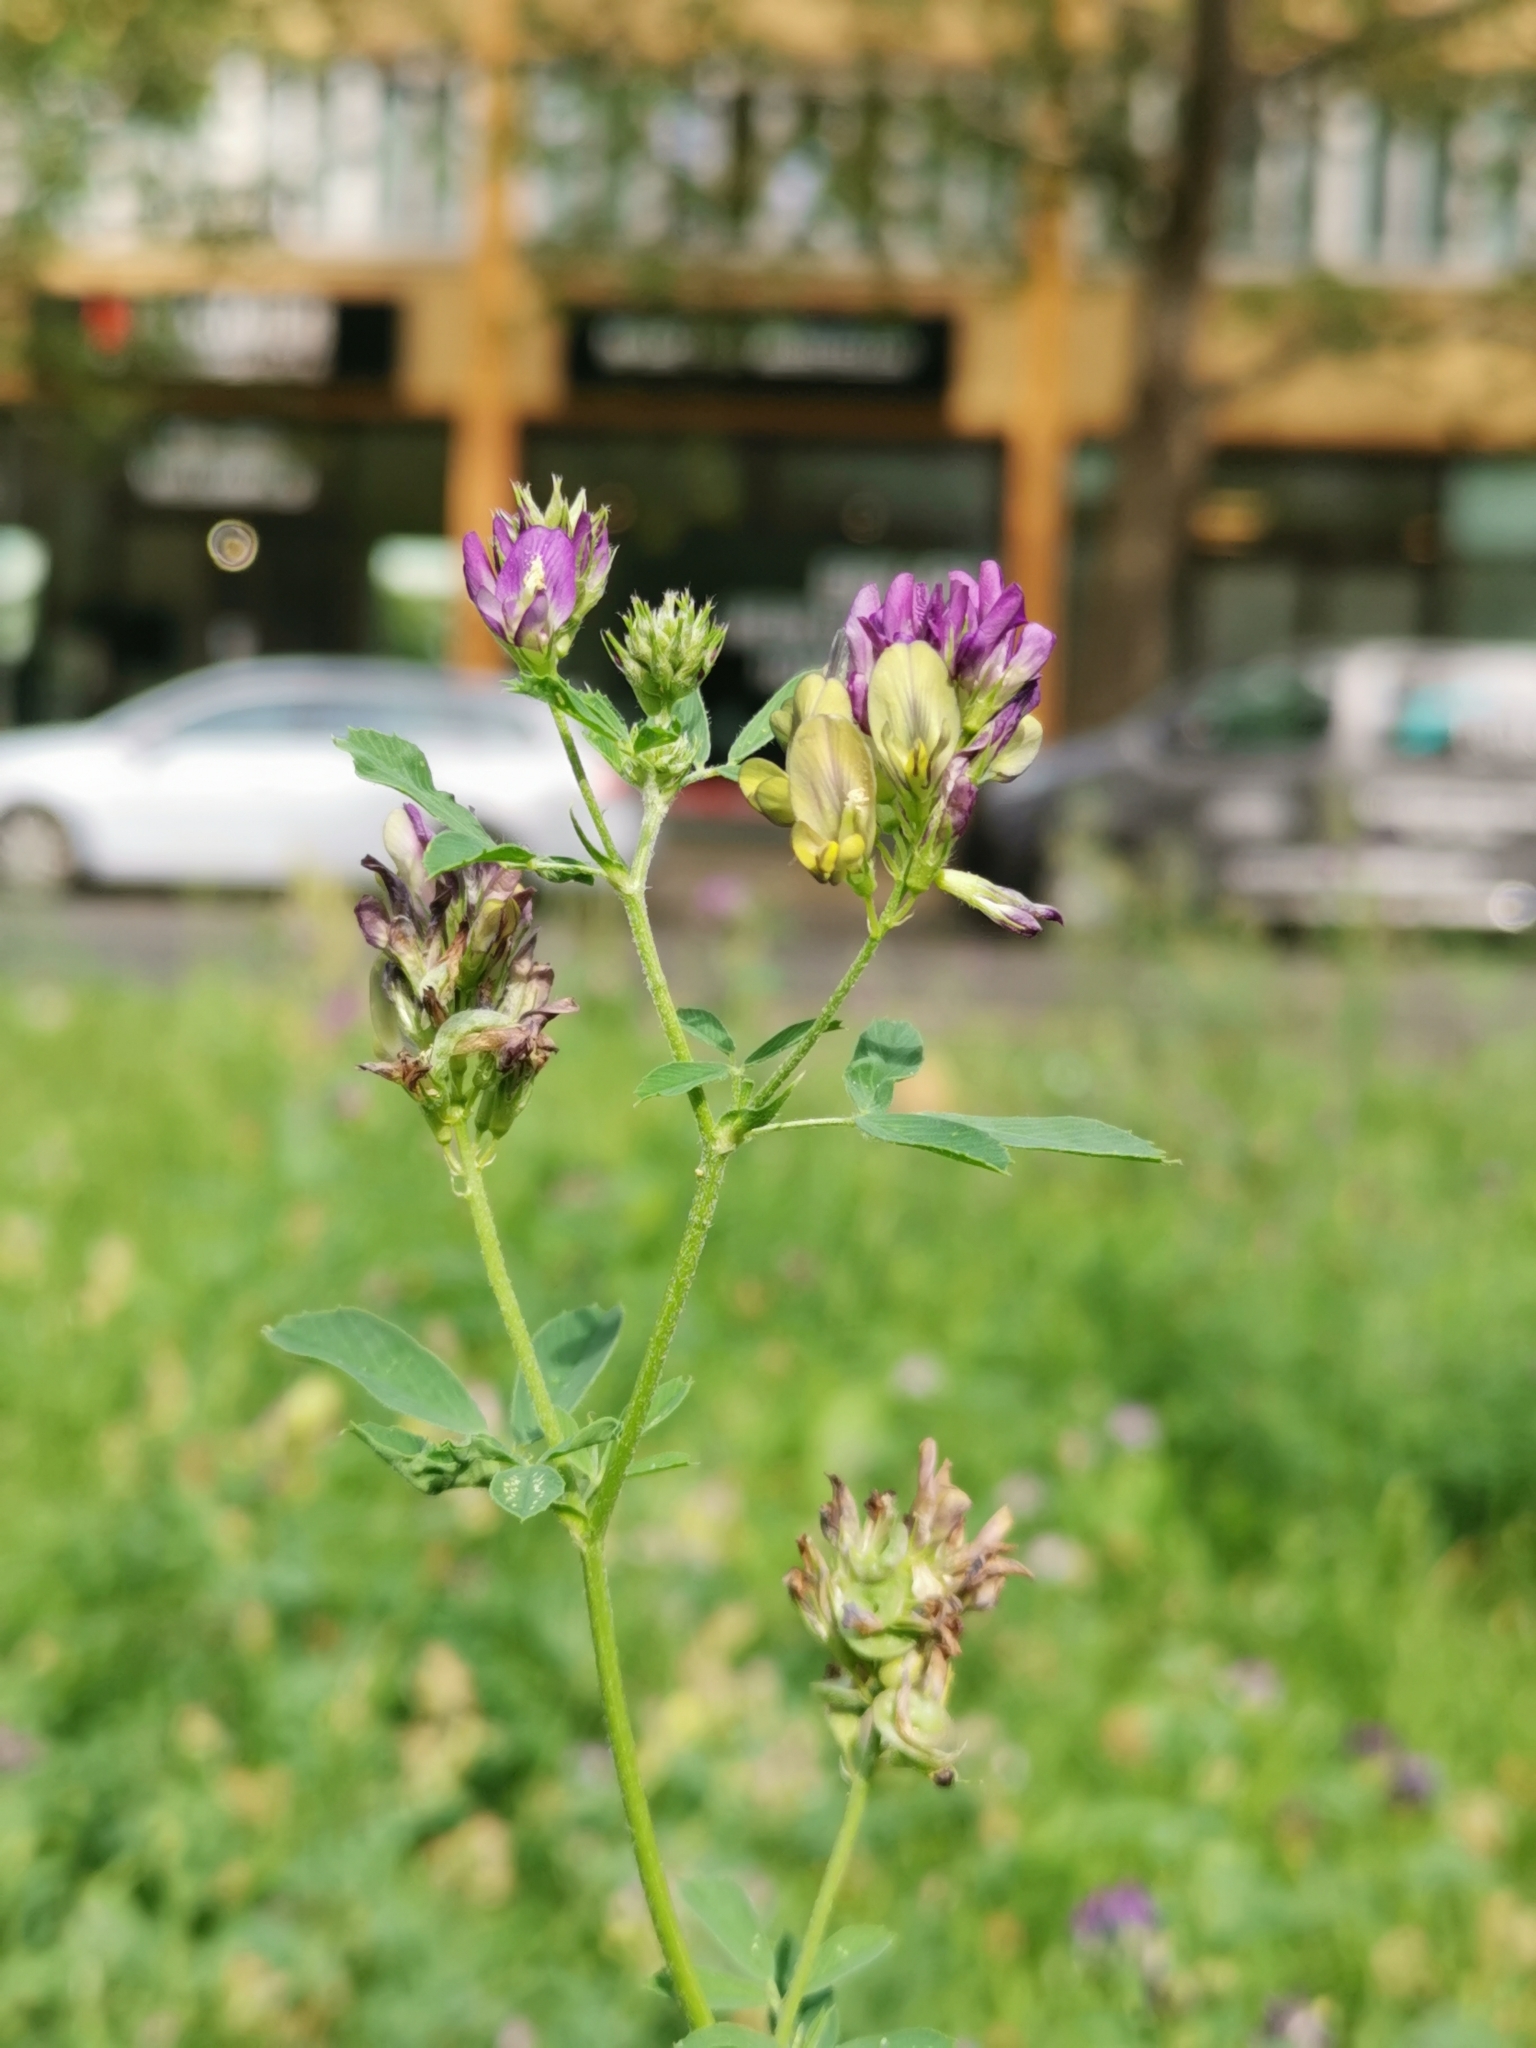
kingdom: Plantae
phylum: Tracheophyta
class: Magnoliopsida
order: Fabales
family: Fabaceae
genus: Medicago
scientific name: Medicago varia
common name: Sand lucerne
